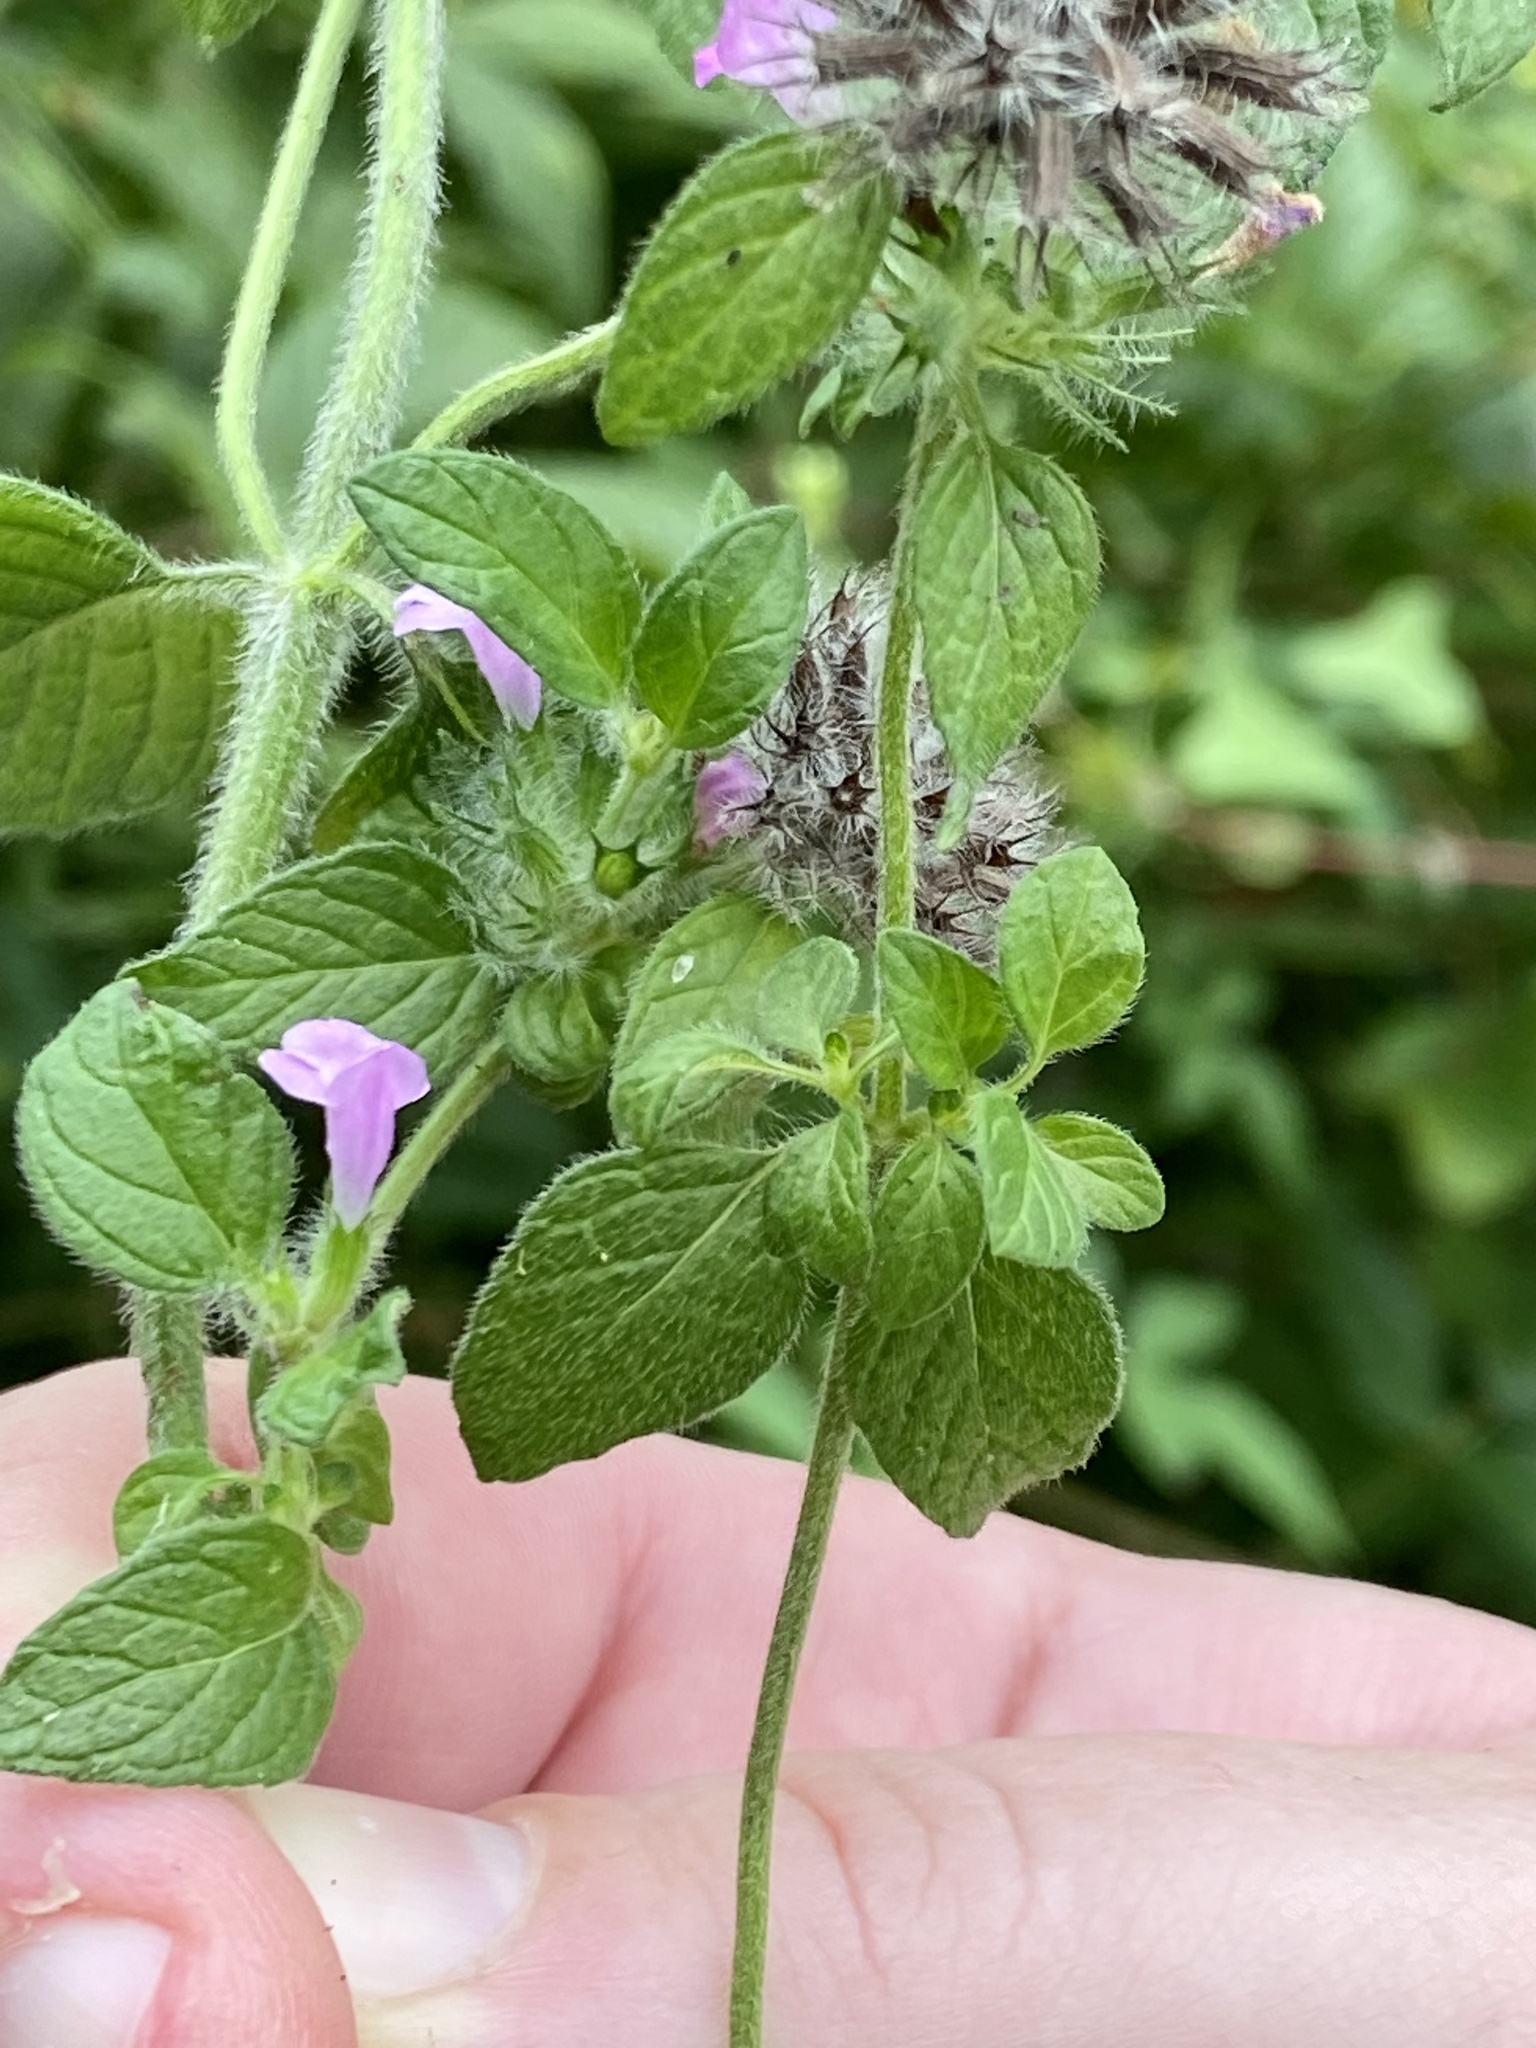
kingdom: Plantae
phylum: Tracheophyta
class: Magnoliopsida
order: Lamiales
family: Lamiaceae
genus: Clinopodium
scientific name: Clinopodium vulgare
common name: Wild basil
